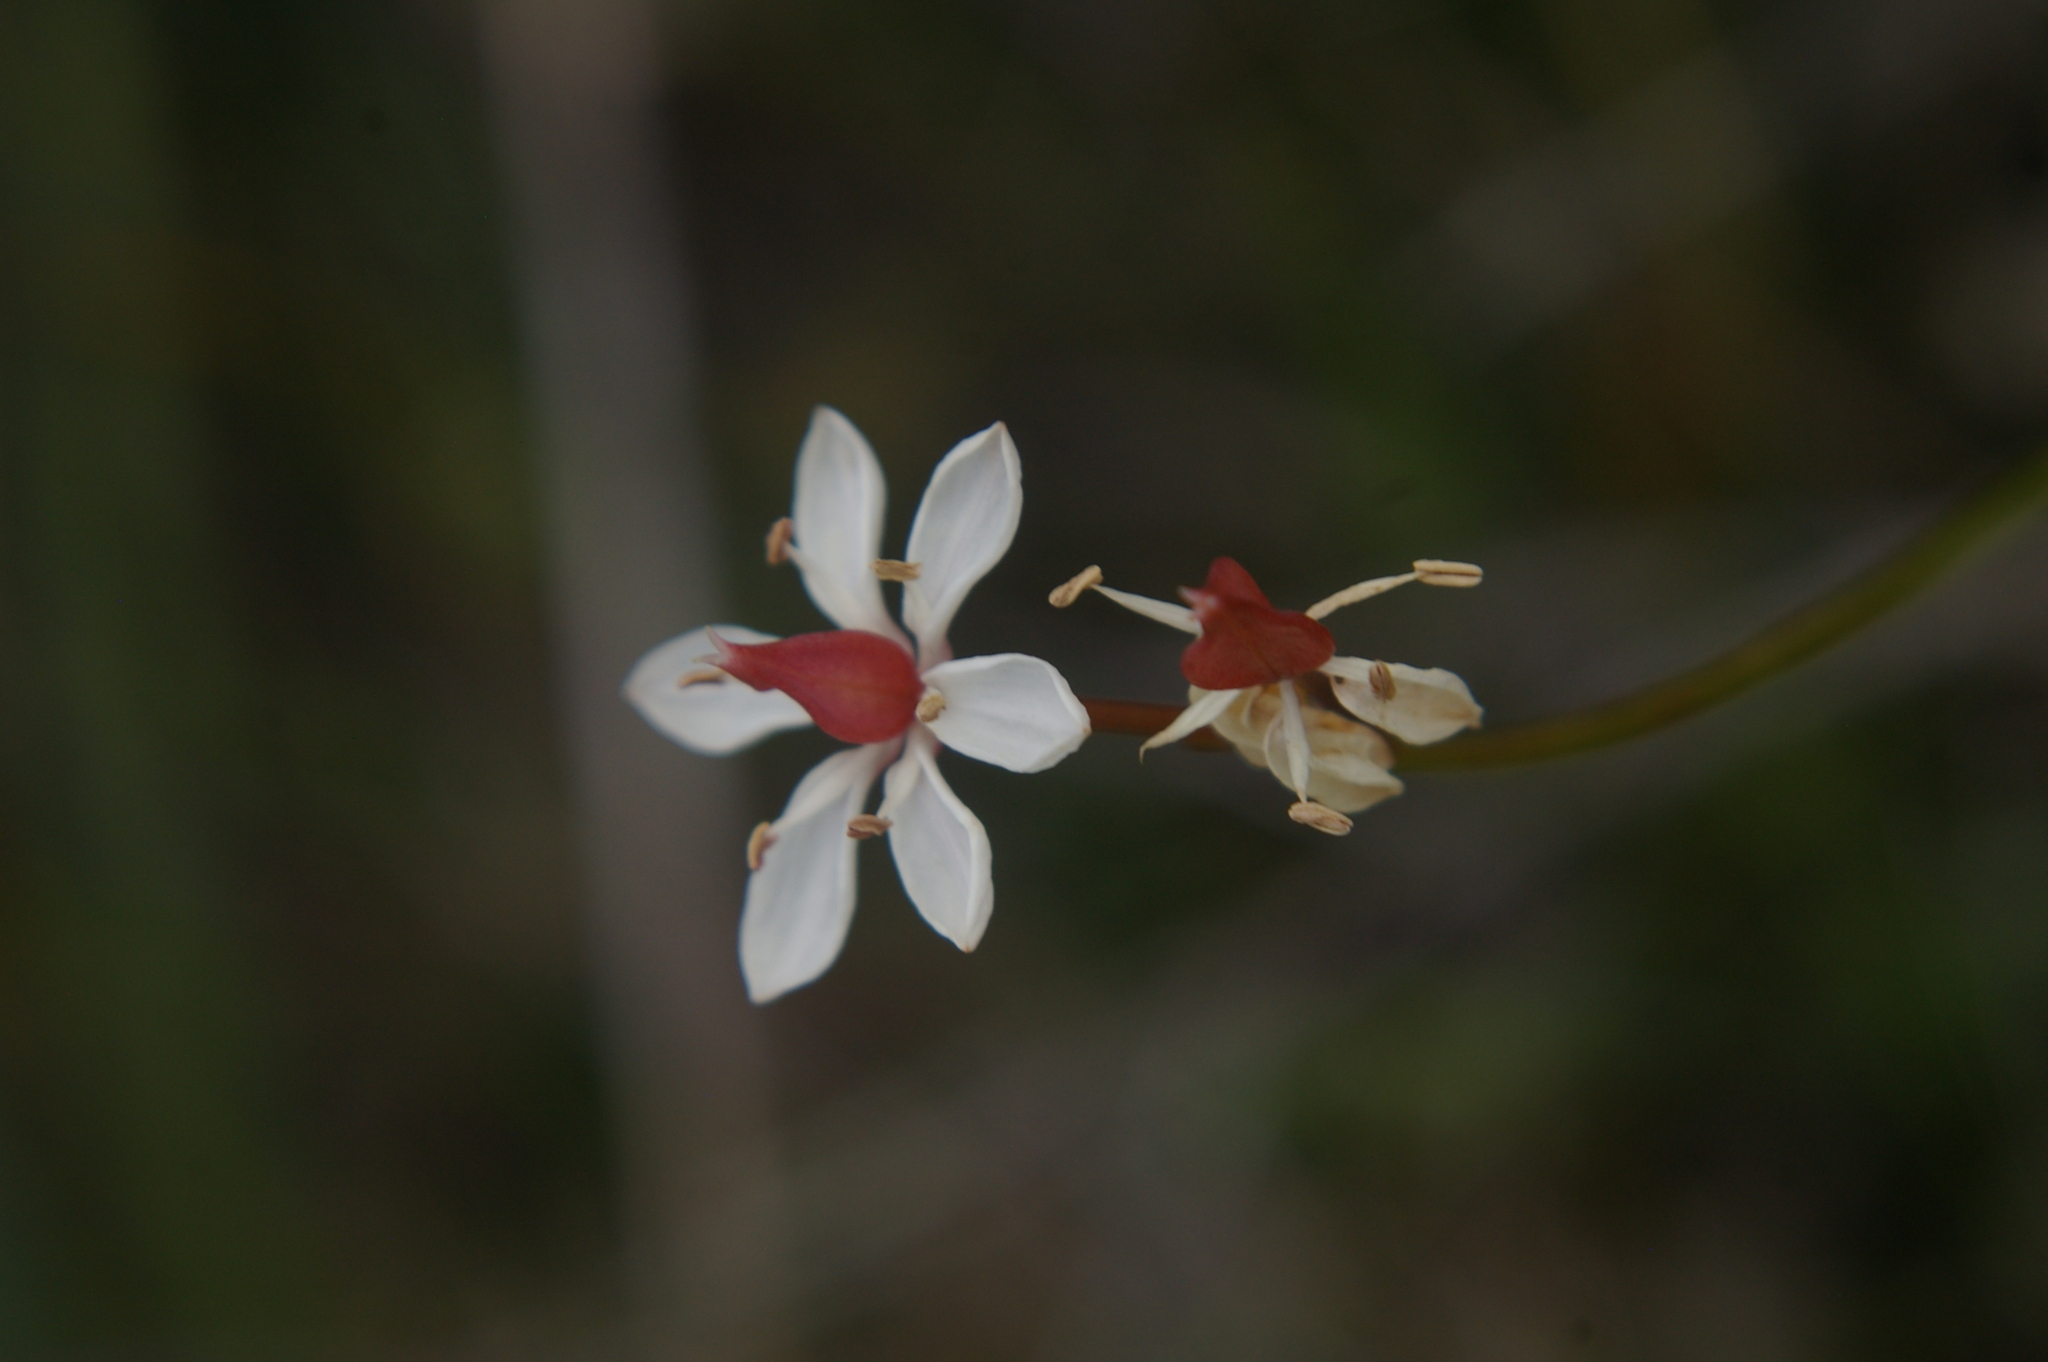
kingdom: Plantae
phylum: Tracheophyta
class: Liliopsida
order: Liliales
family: Colchicaceae
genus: Burchardia
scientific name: Burchardia umbellata
